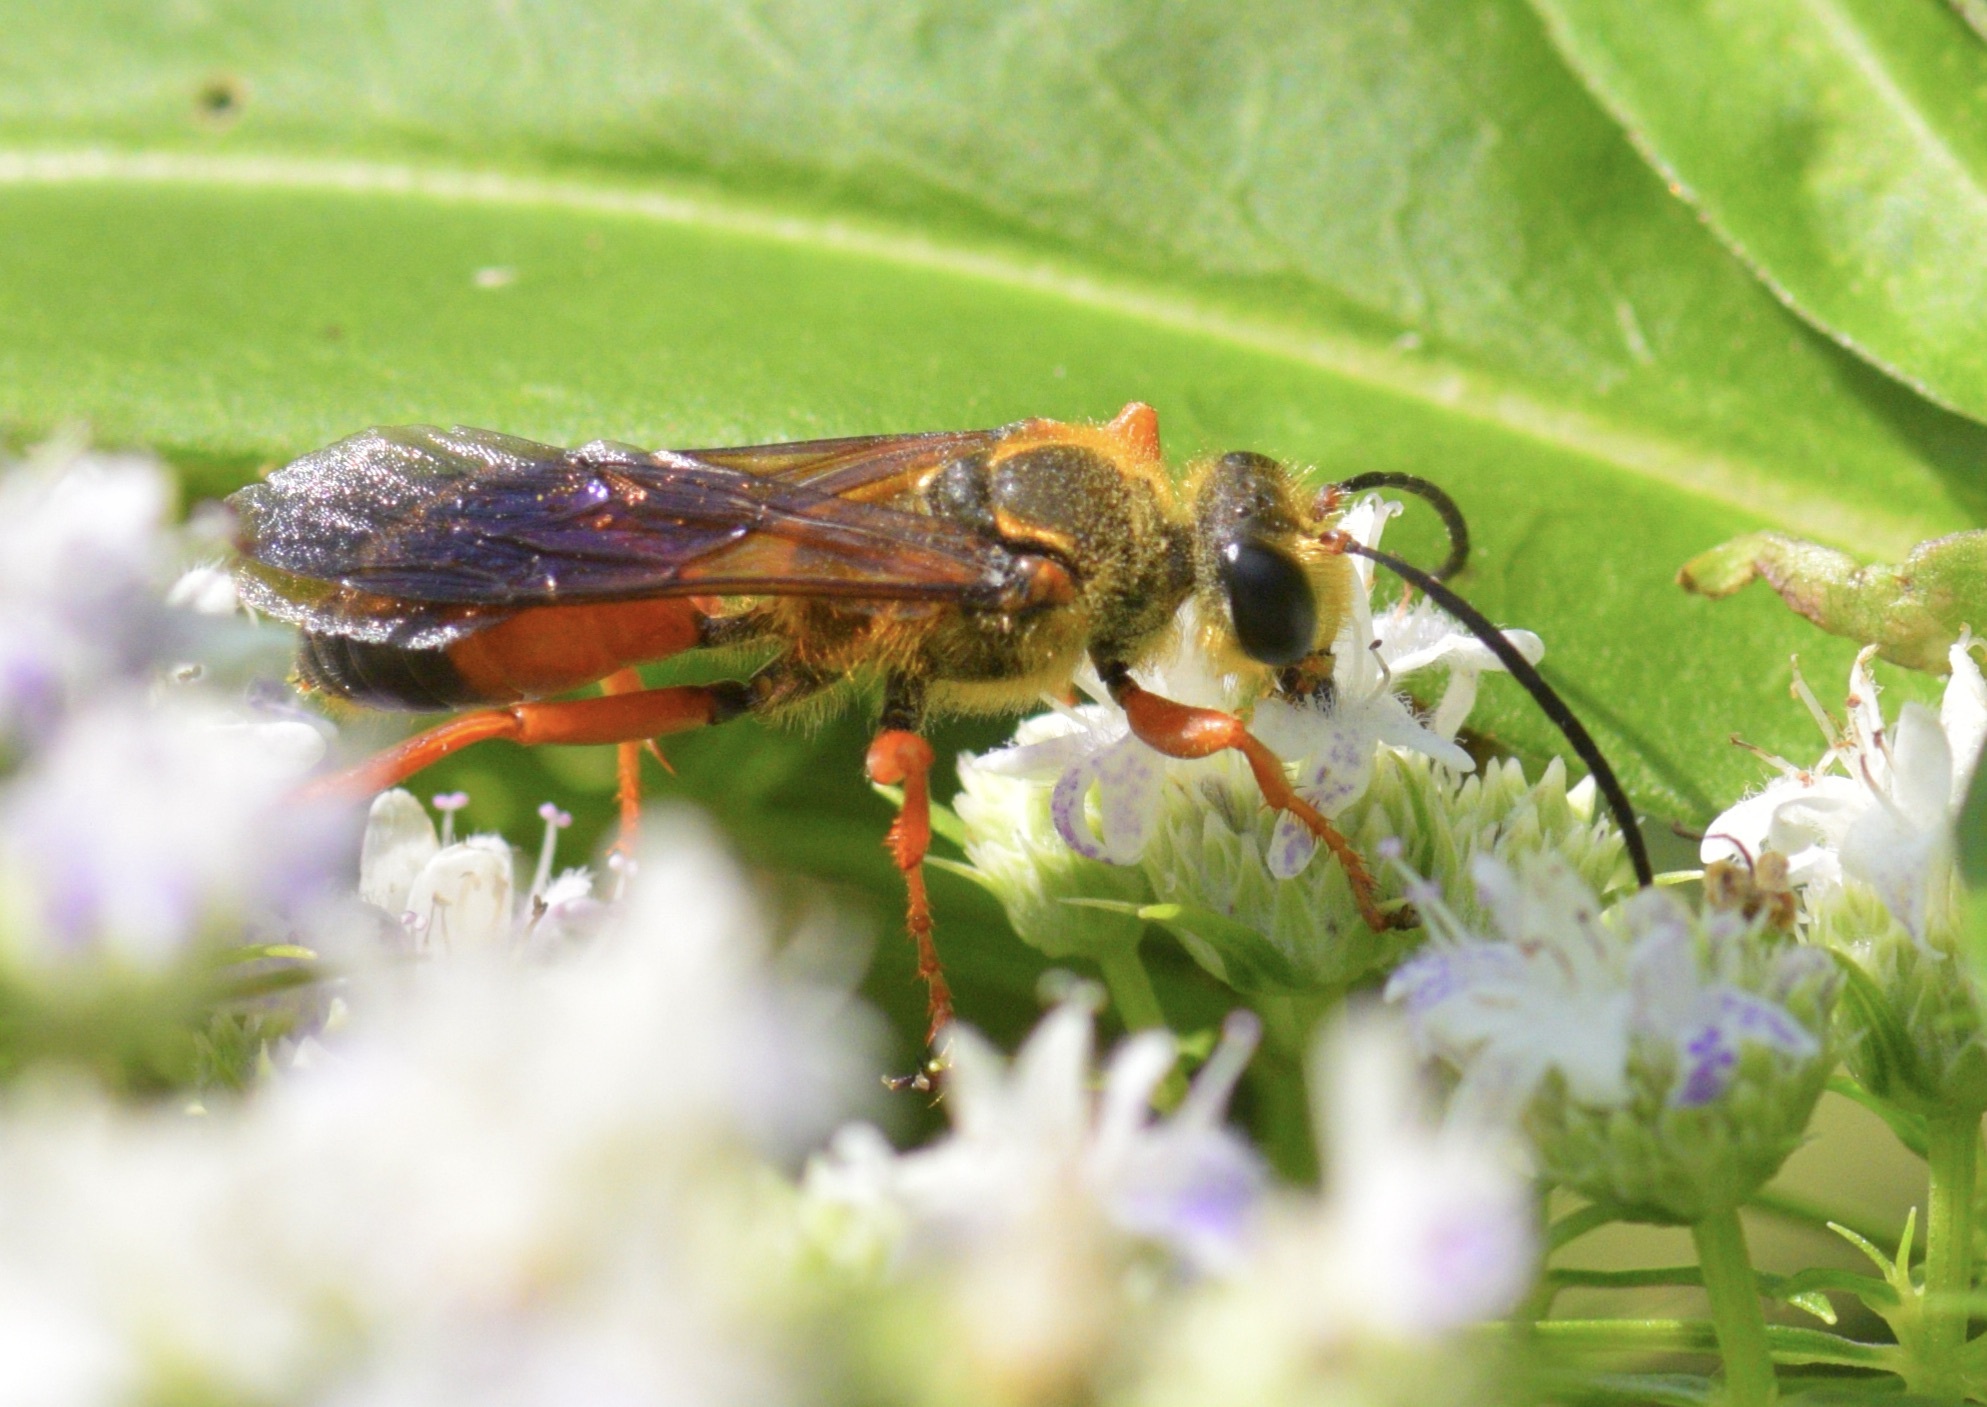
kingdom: Animalia
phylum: Arthropoda
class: Insecta
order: Hymenoptera
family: Sphecidae
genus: Sphex
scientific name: Sphex ichneumoneus
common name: Great golden digger wasp
